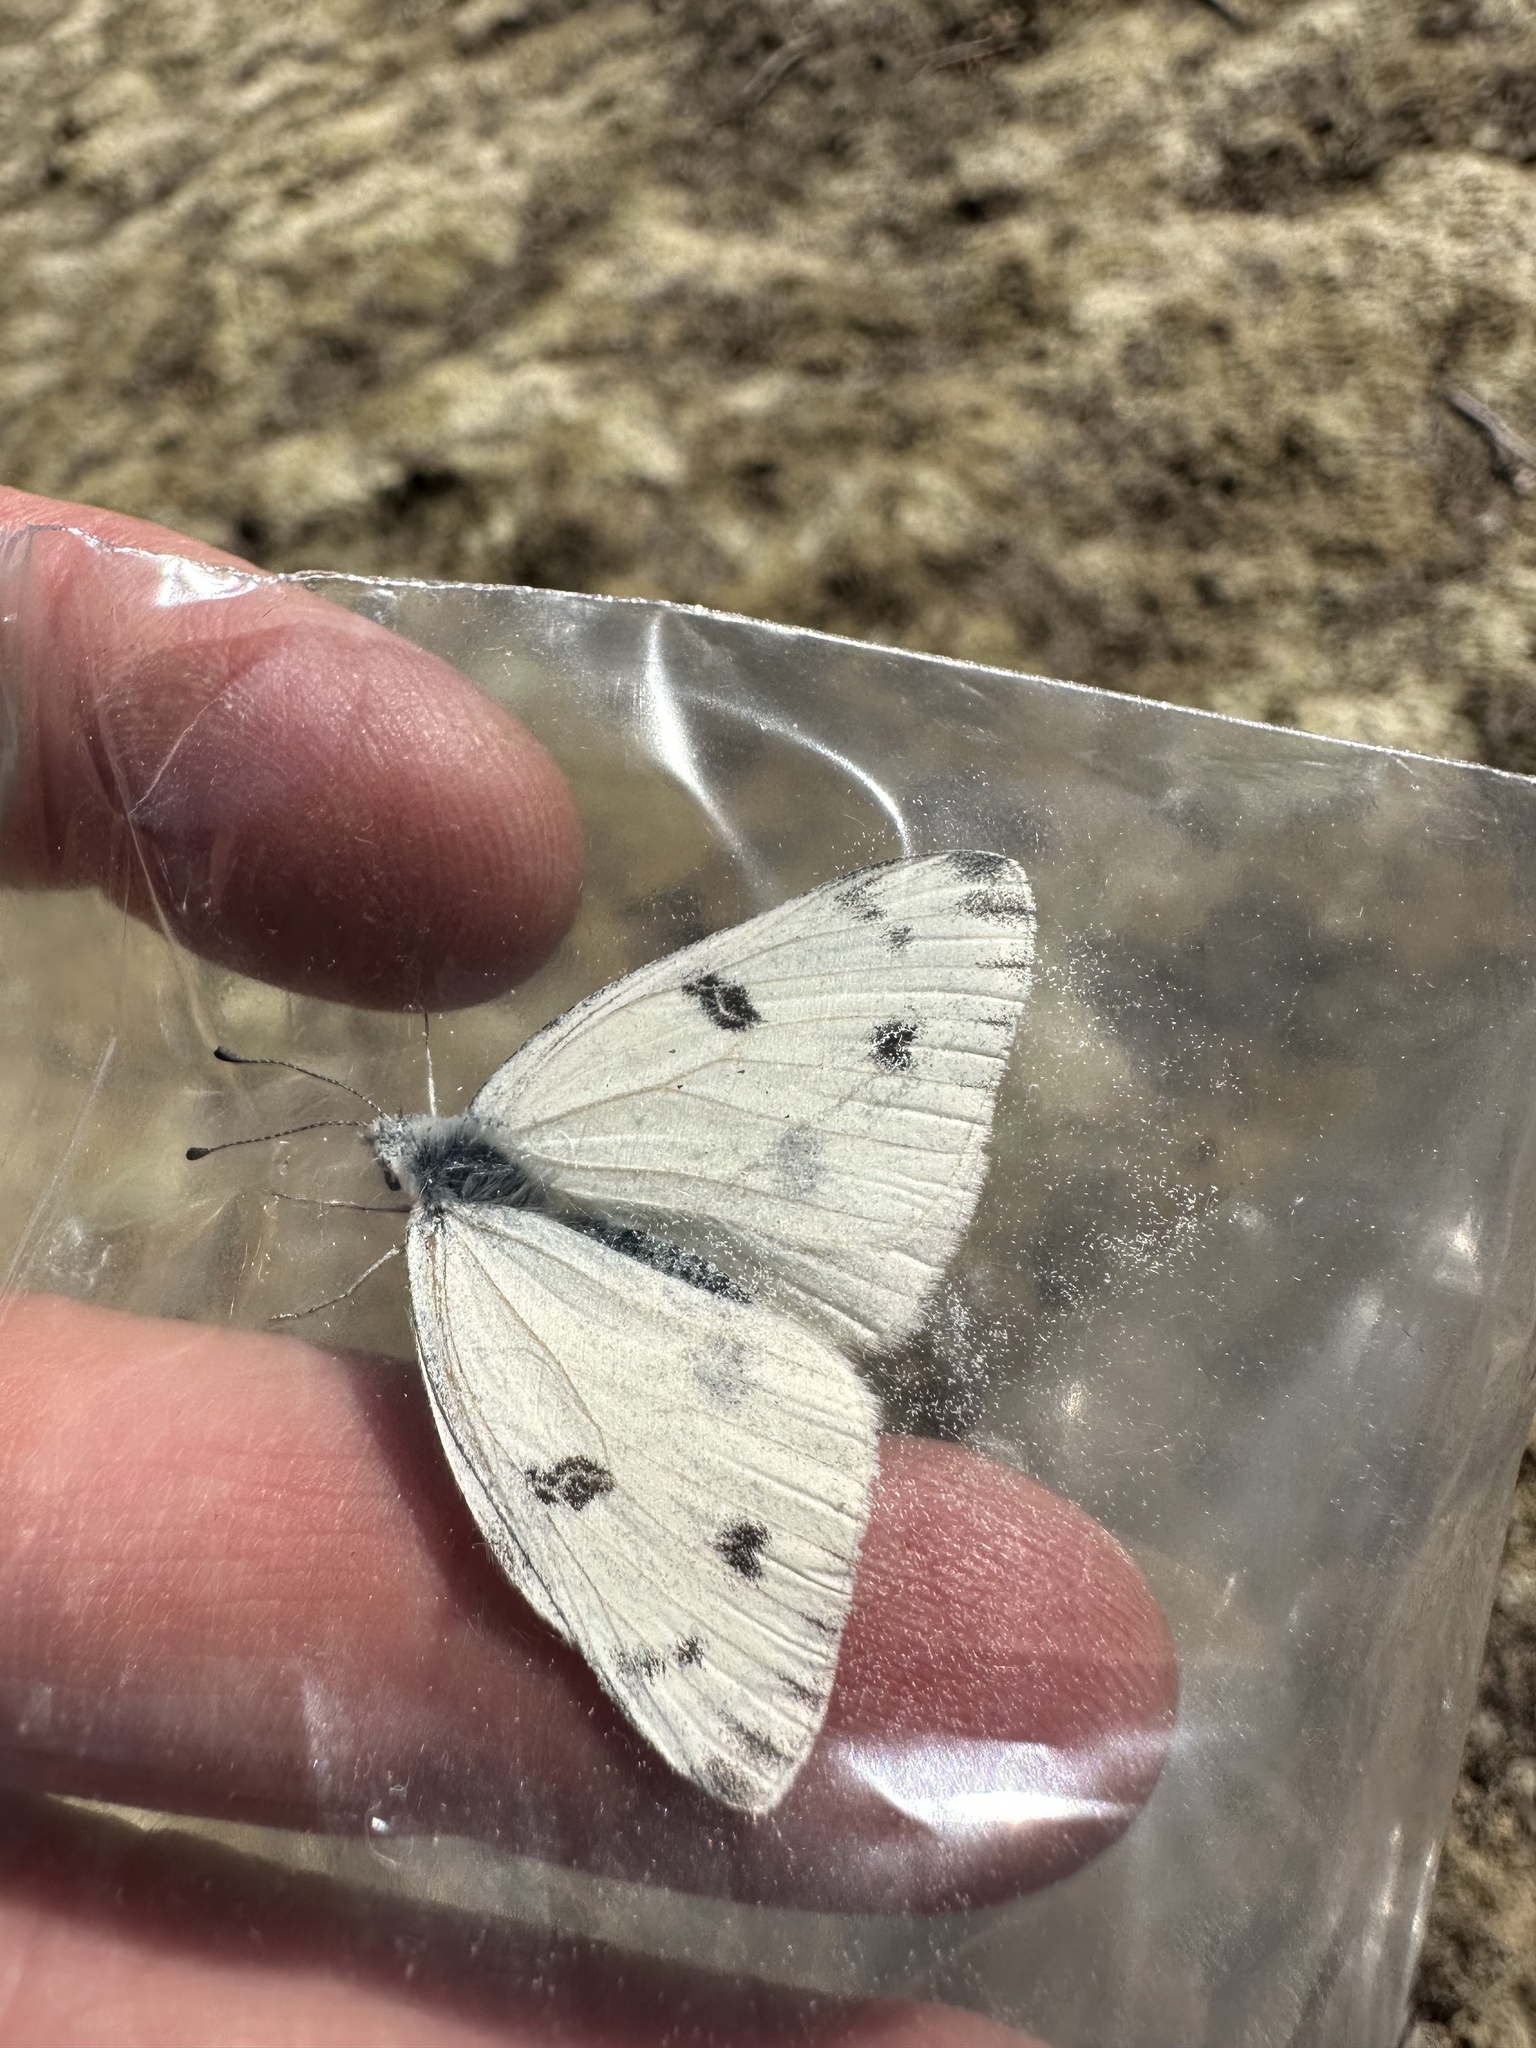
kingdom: Animalia
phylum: Arthropoda
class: Insecta
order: Lepidoptera
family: Pieridae
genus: Pontia
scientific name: Pontia protodice
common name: Checkered white
